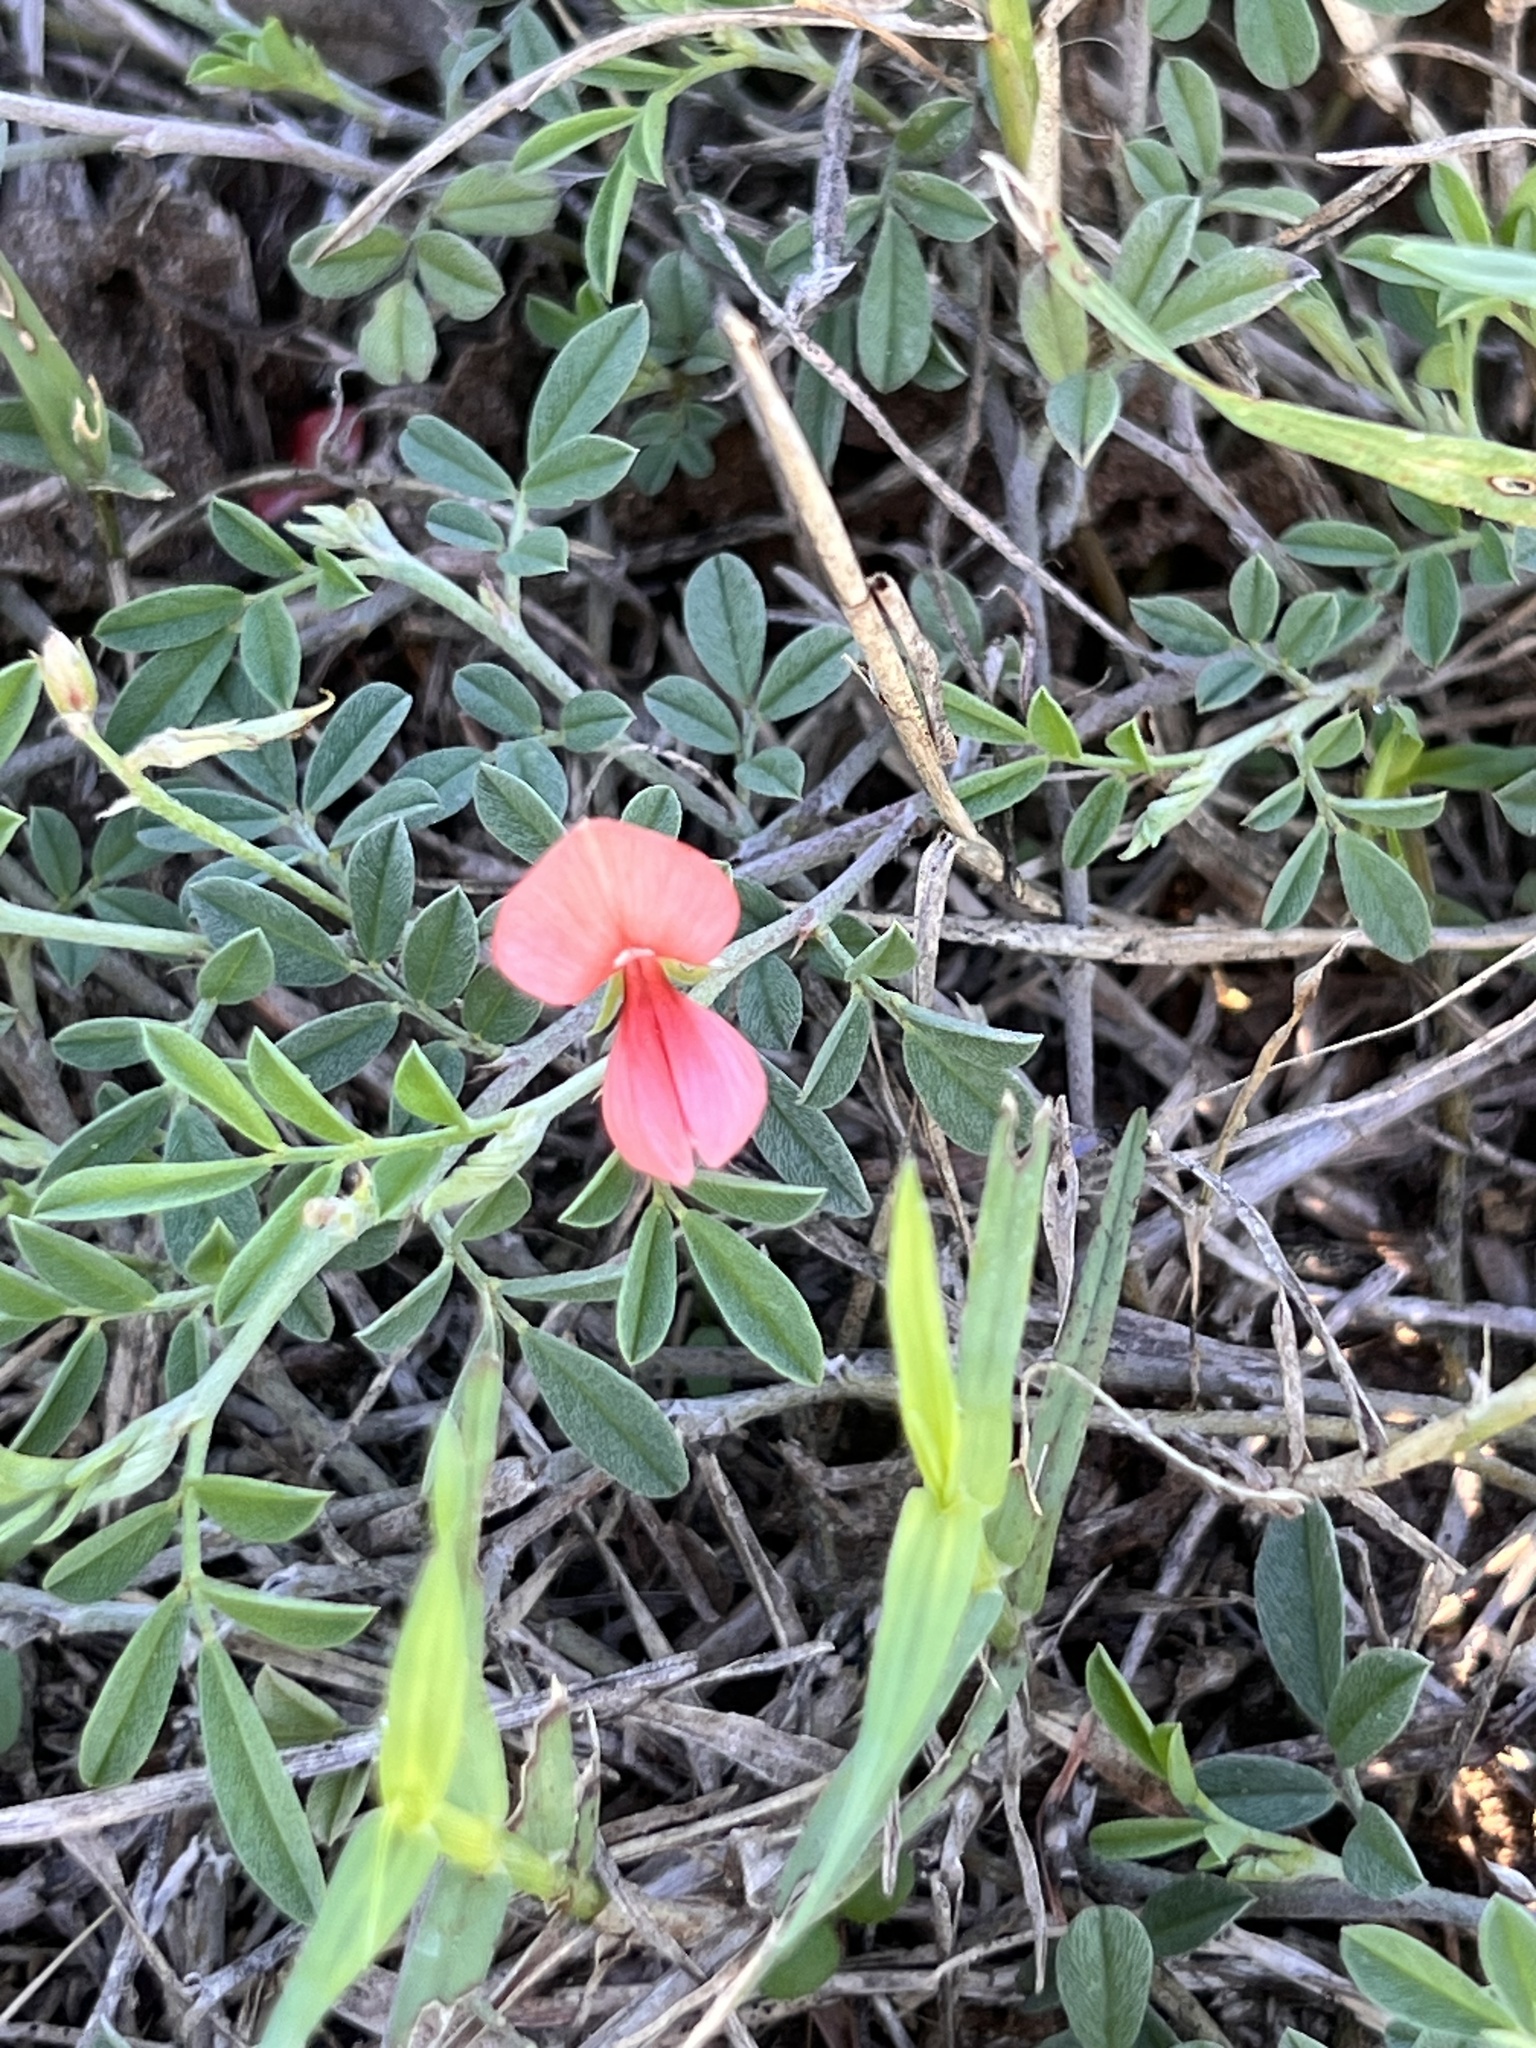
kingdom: Plantae
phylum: Tracheophyta
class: Magnoliopsida
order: Fabales
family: Fabaceae
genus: Indigofera
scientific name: Indigofera miniata
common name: Coast indigo
